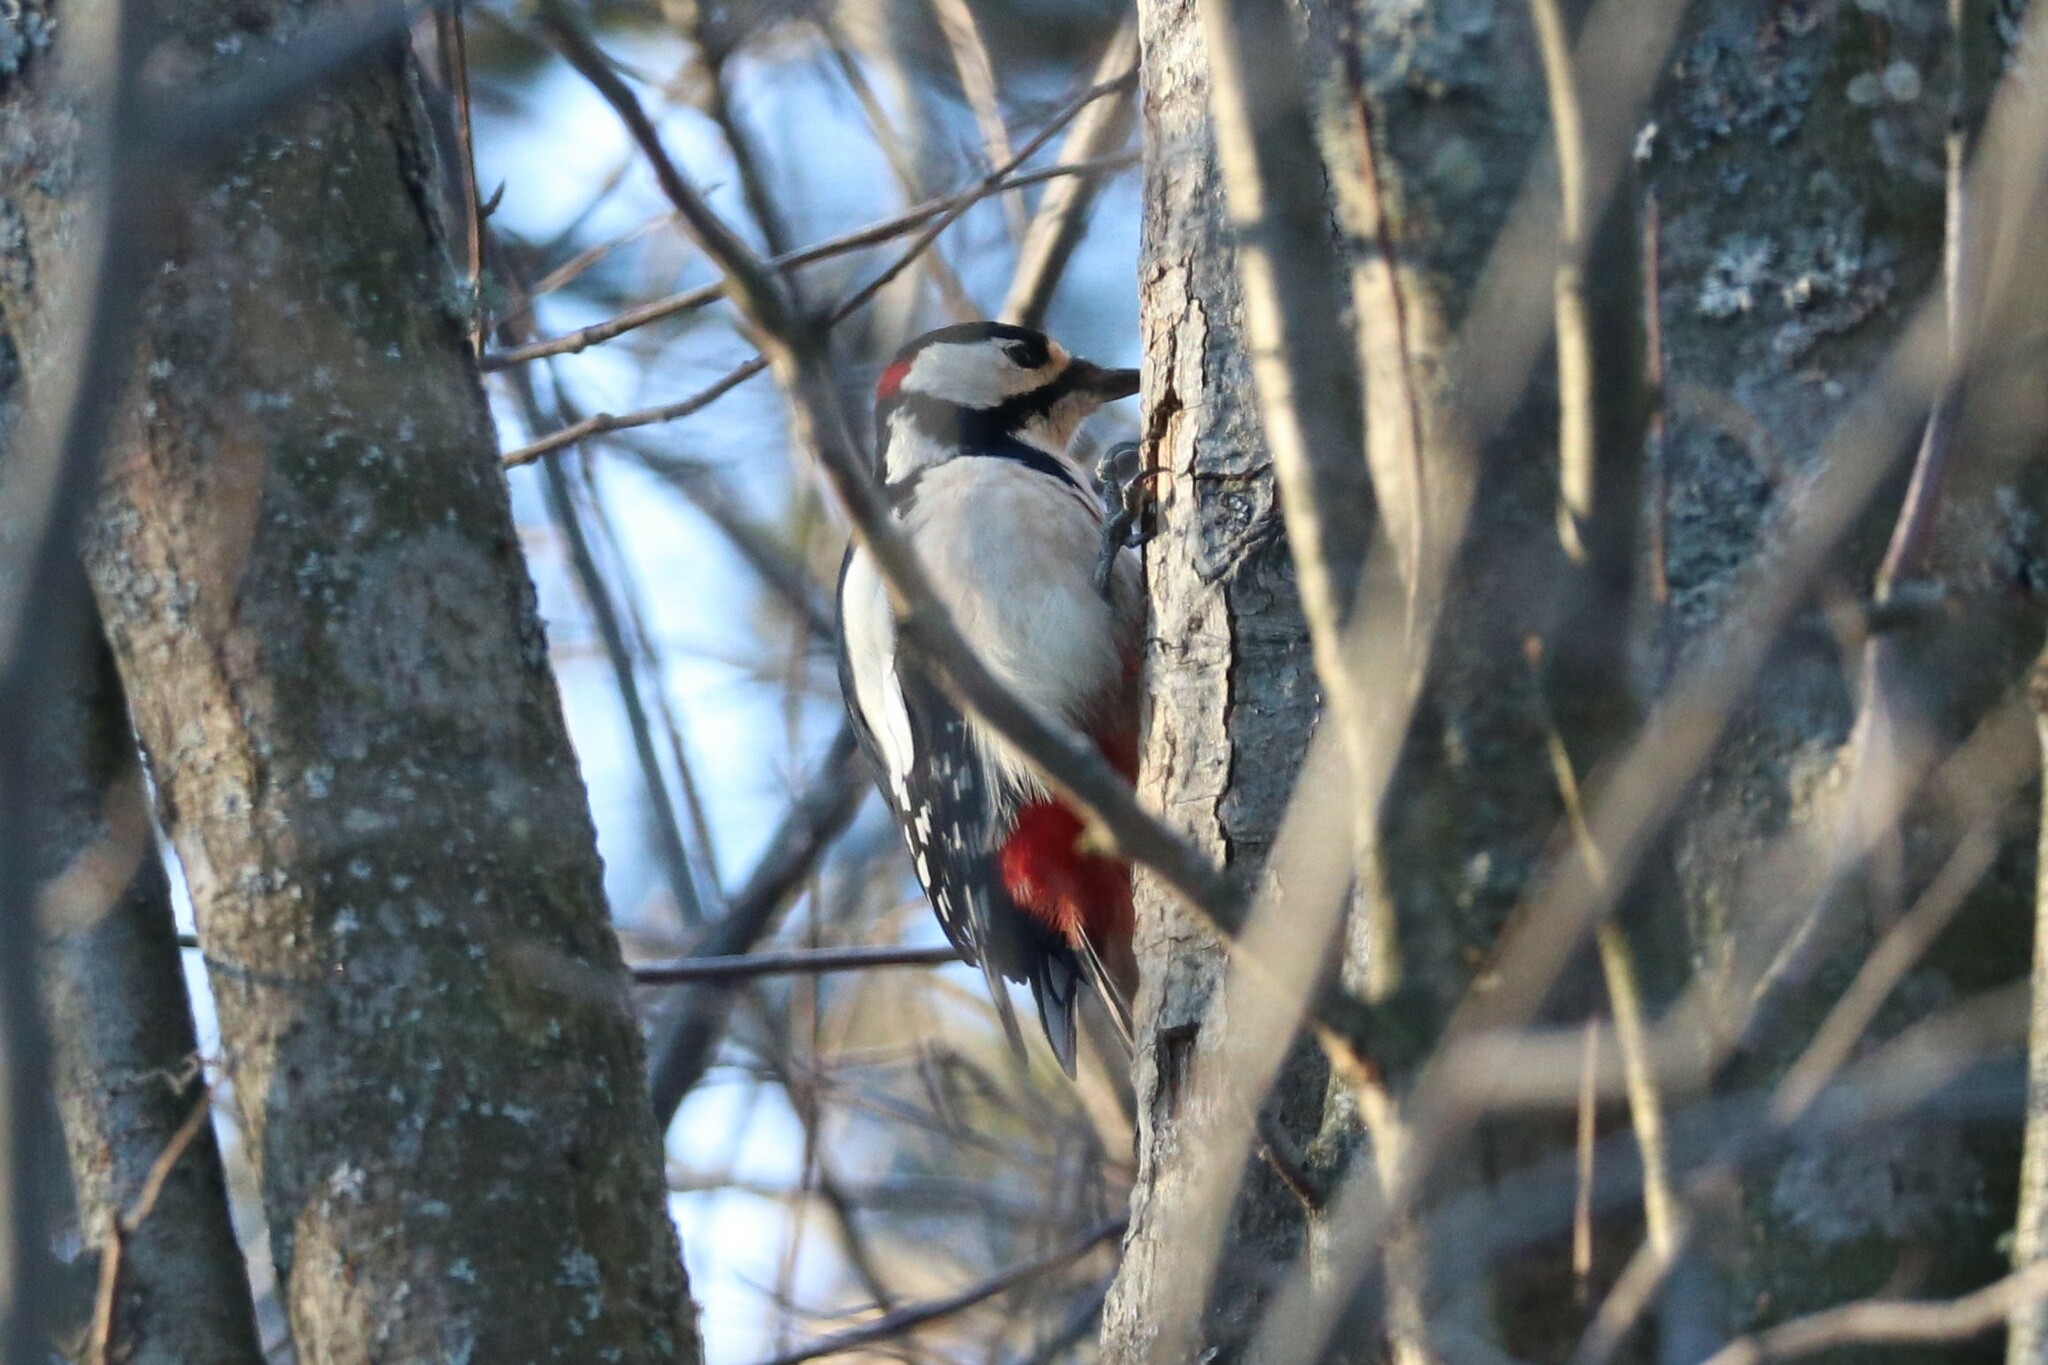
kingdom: Animalia
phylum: Chordata
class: Aves
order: Piciformes
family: Picidae
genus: Dendrocopos
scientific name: Dendrocopos major
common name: Great spotted woodpecker
